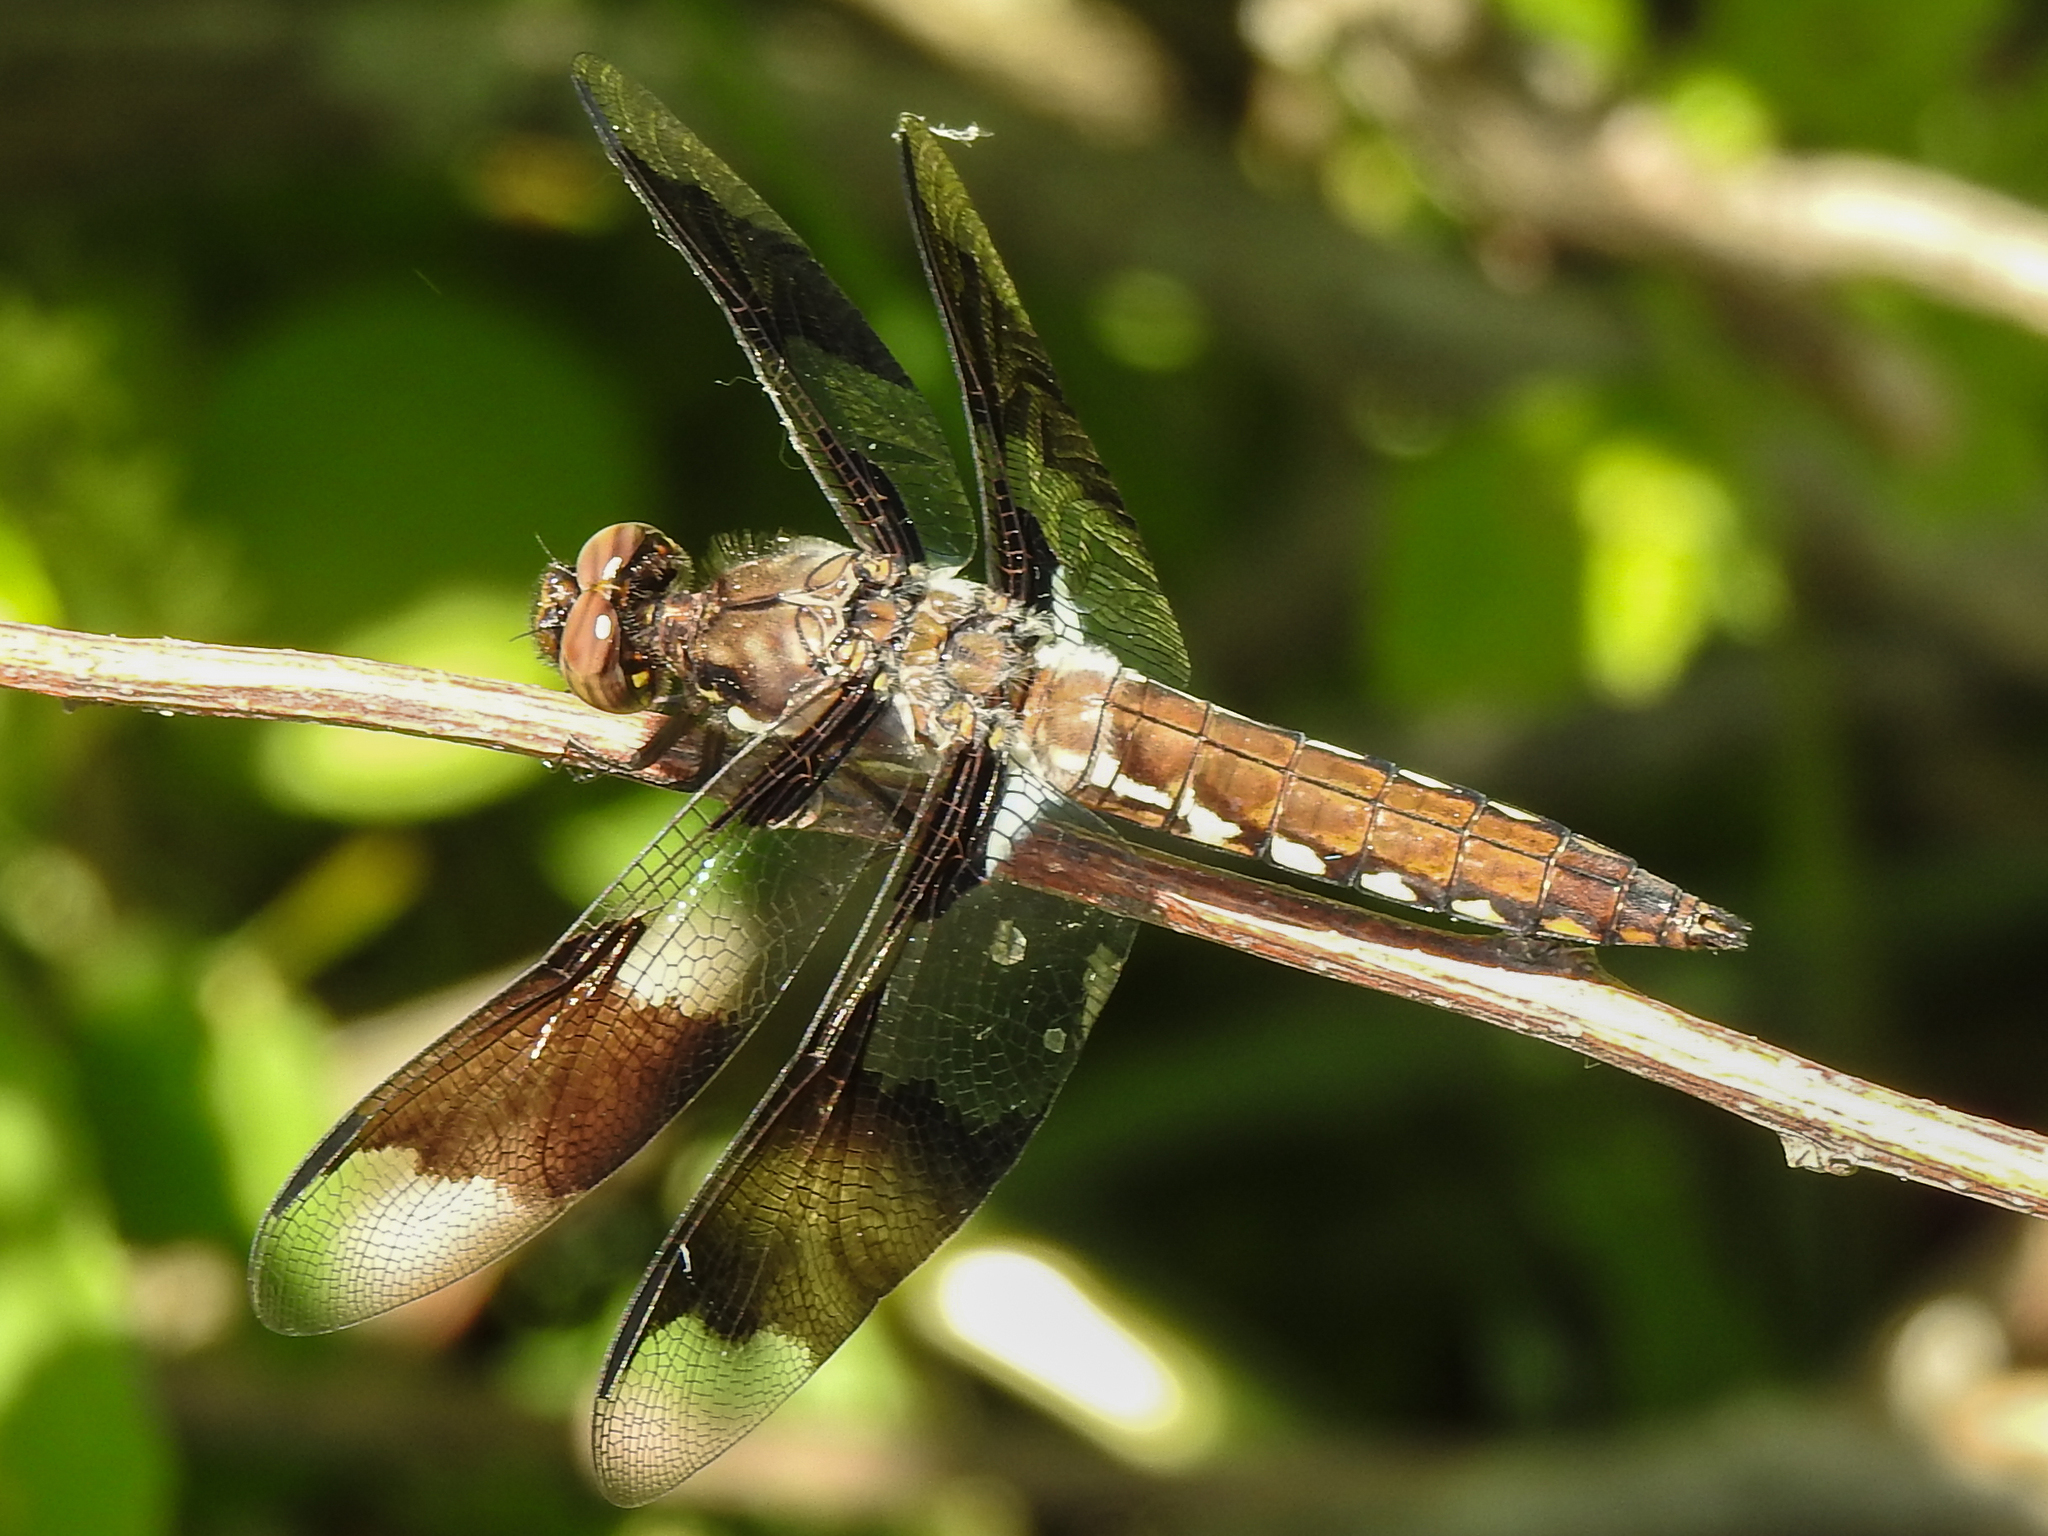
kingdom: Animalia
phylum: Arthropoda
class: Insecta
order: Odonata
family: Libellulidae
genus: Plathemis
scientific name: Plathemis lydia
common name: Common whitetail
